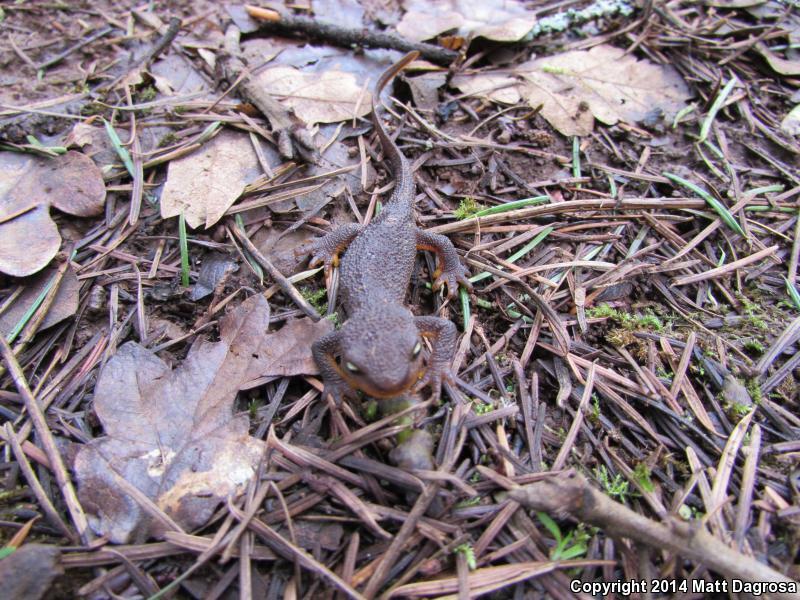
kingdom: Animalia
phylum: Chordata
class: Amphibia
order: Caudata
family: Salamandridae
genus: Taricha
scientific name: Taricha granulosa
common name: Roughskin newt
